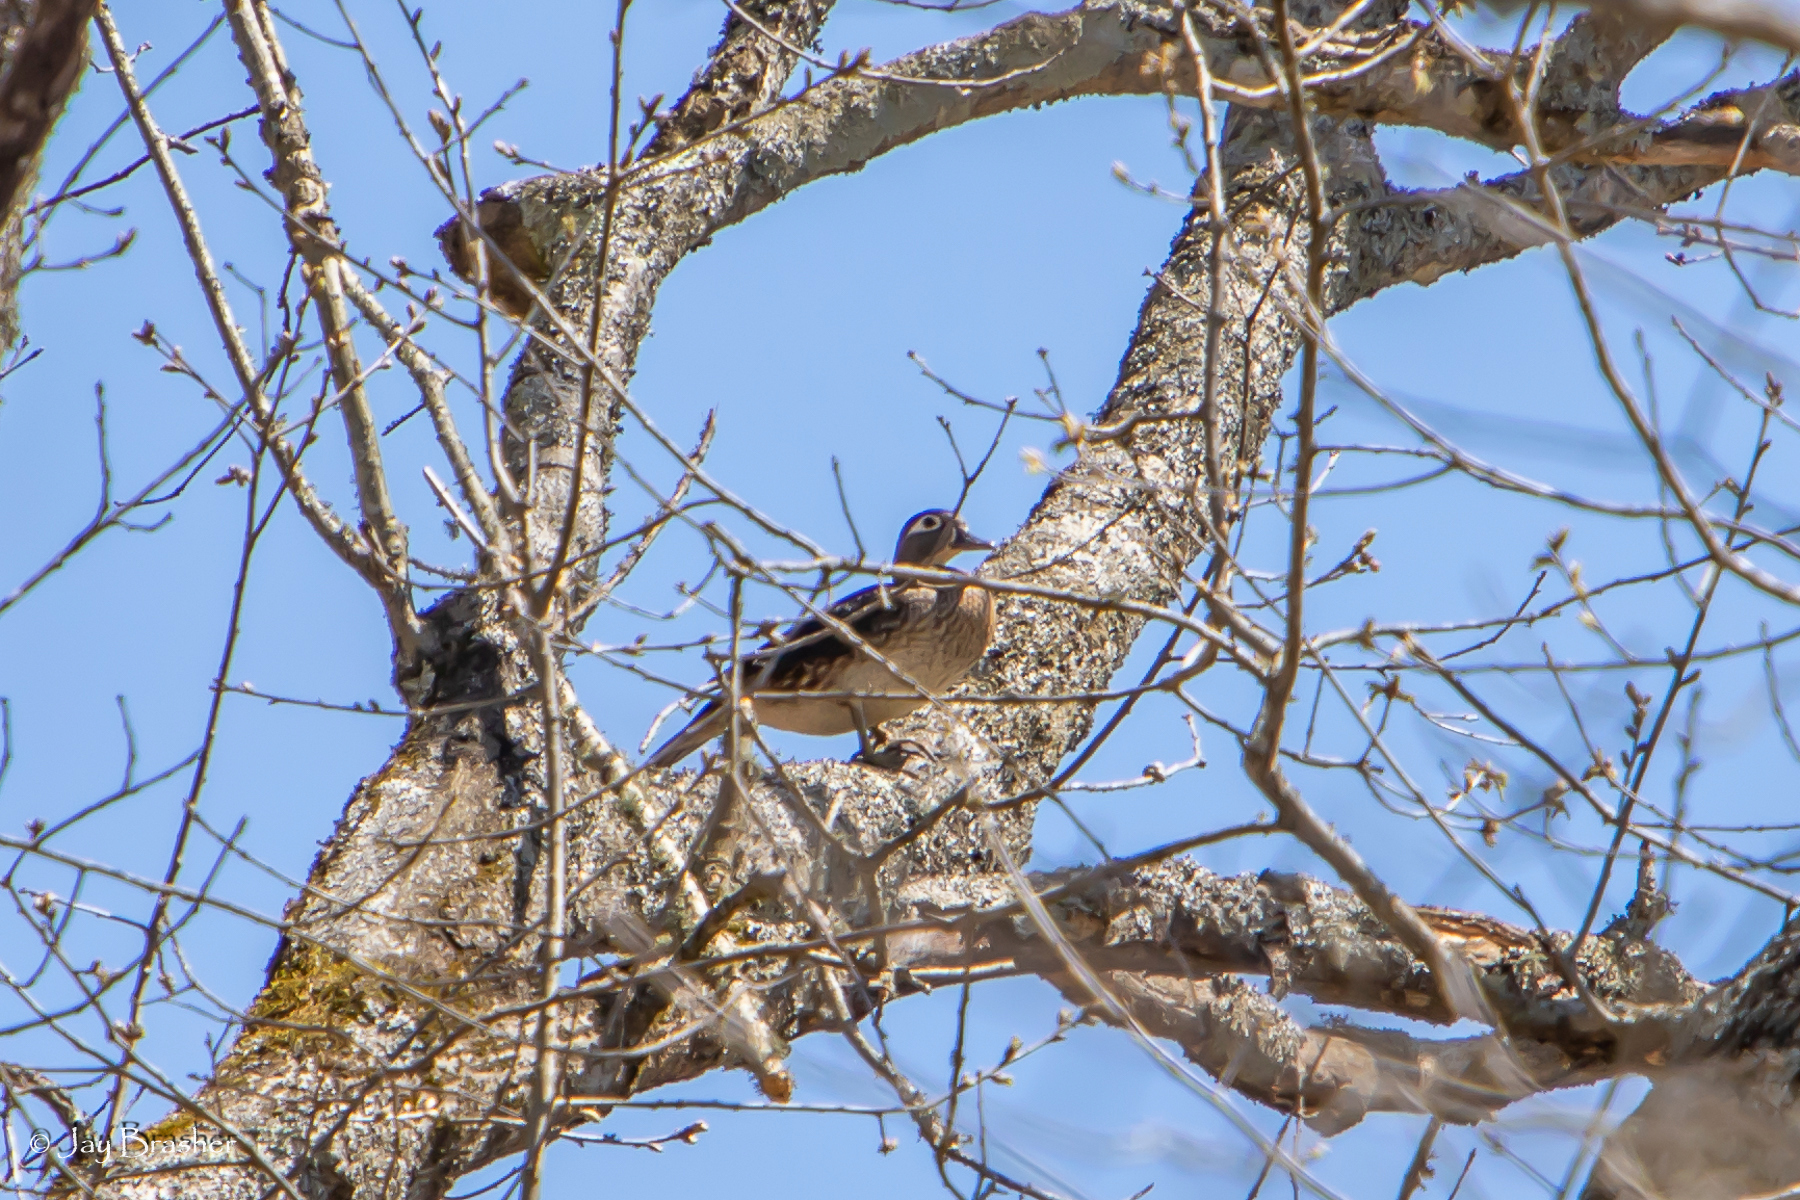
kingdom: Animalia
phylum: Chordata
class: Aves
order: Anseriformes
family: Anatidae
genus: Aix
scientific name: Aix sponsa
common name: Wood duck
